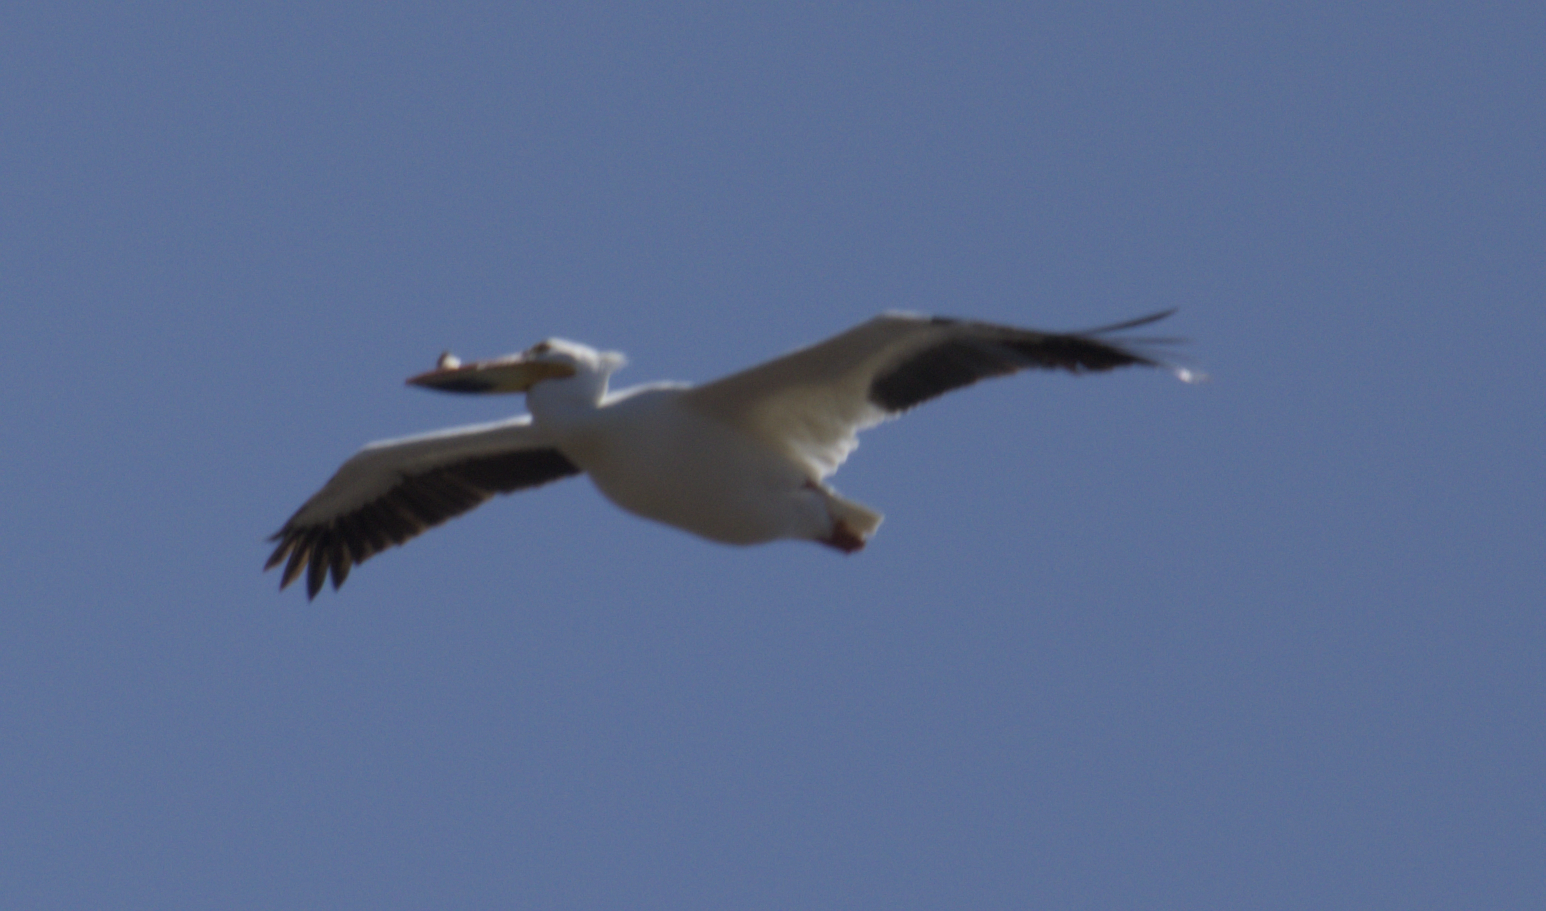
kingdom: Animalia
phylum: Chordata
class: Aves
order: Pelecaniformes
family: Pelecanidae
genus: Pelecanus
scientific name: Pelecanus erythrorhynchos
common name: American white pelican
